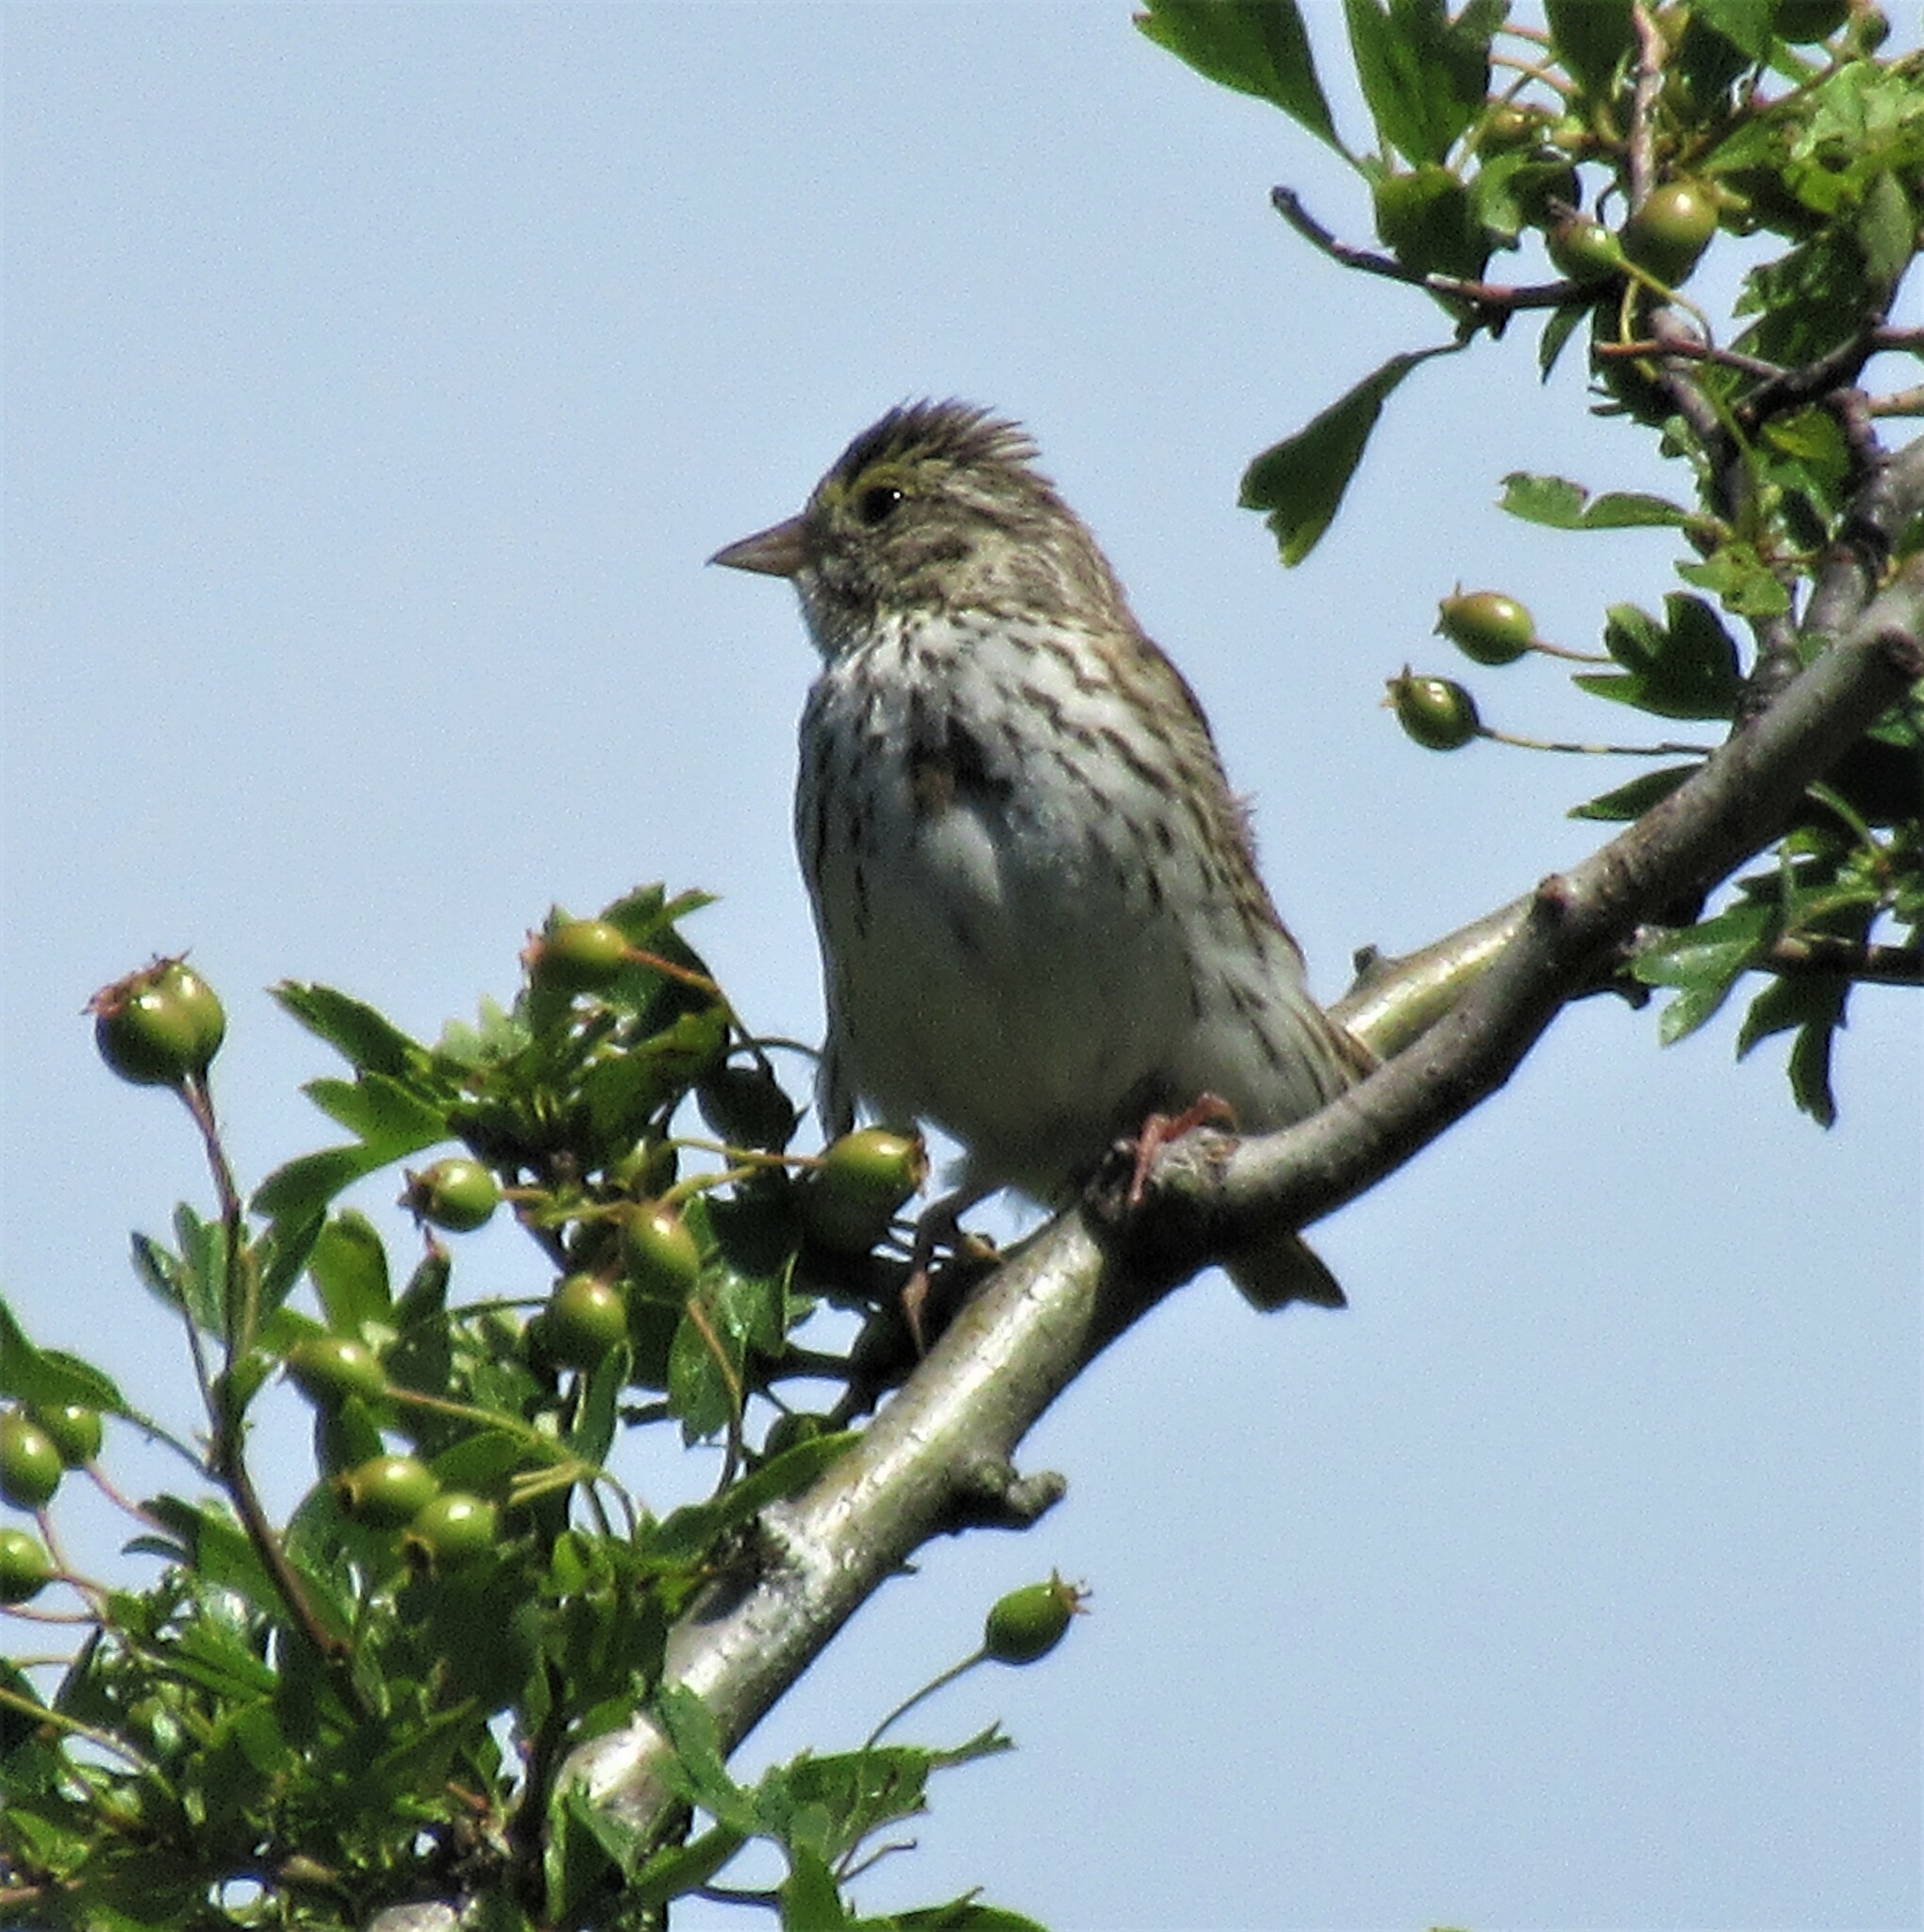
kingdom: Animalia
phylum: Chordata
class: Aves
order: Passeriformes
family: Passerellidae
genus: Passerculus
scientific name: Passerculus sandwichensis
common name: Savannah sparrow
